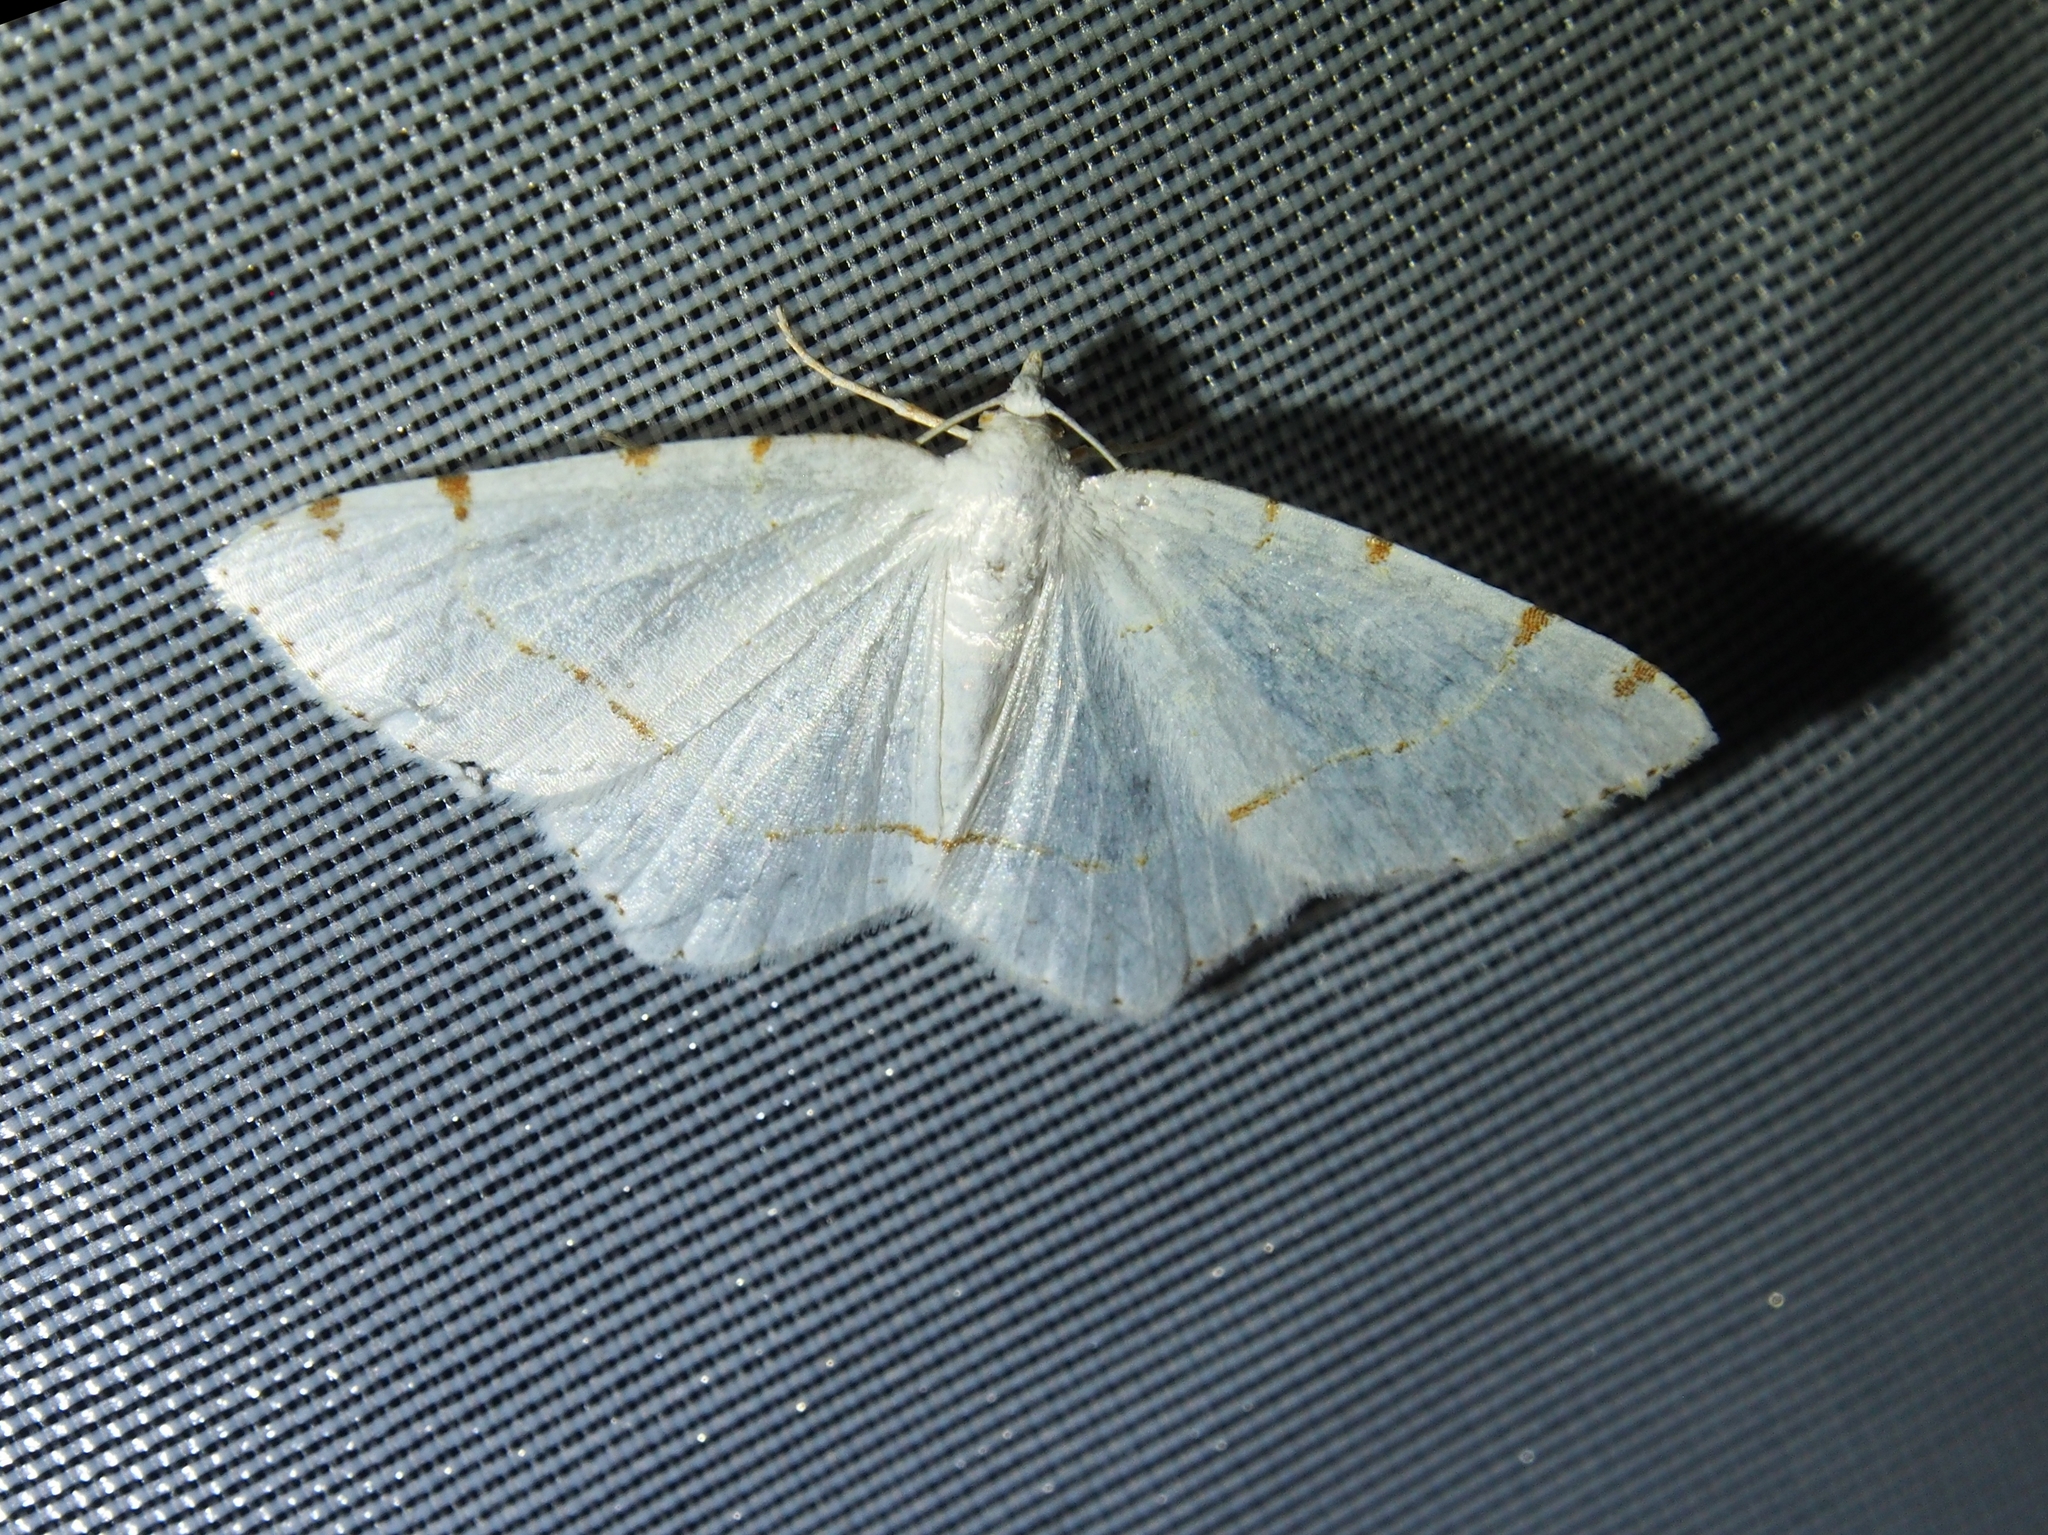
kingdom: Animalia
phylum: Arthropoda
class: Insecta
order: Lepidoptera
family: Geometridae
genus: Macaria
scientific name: Macaria pustularia
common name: Lesser maple spanworm moth
